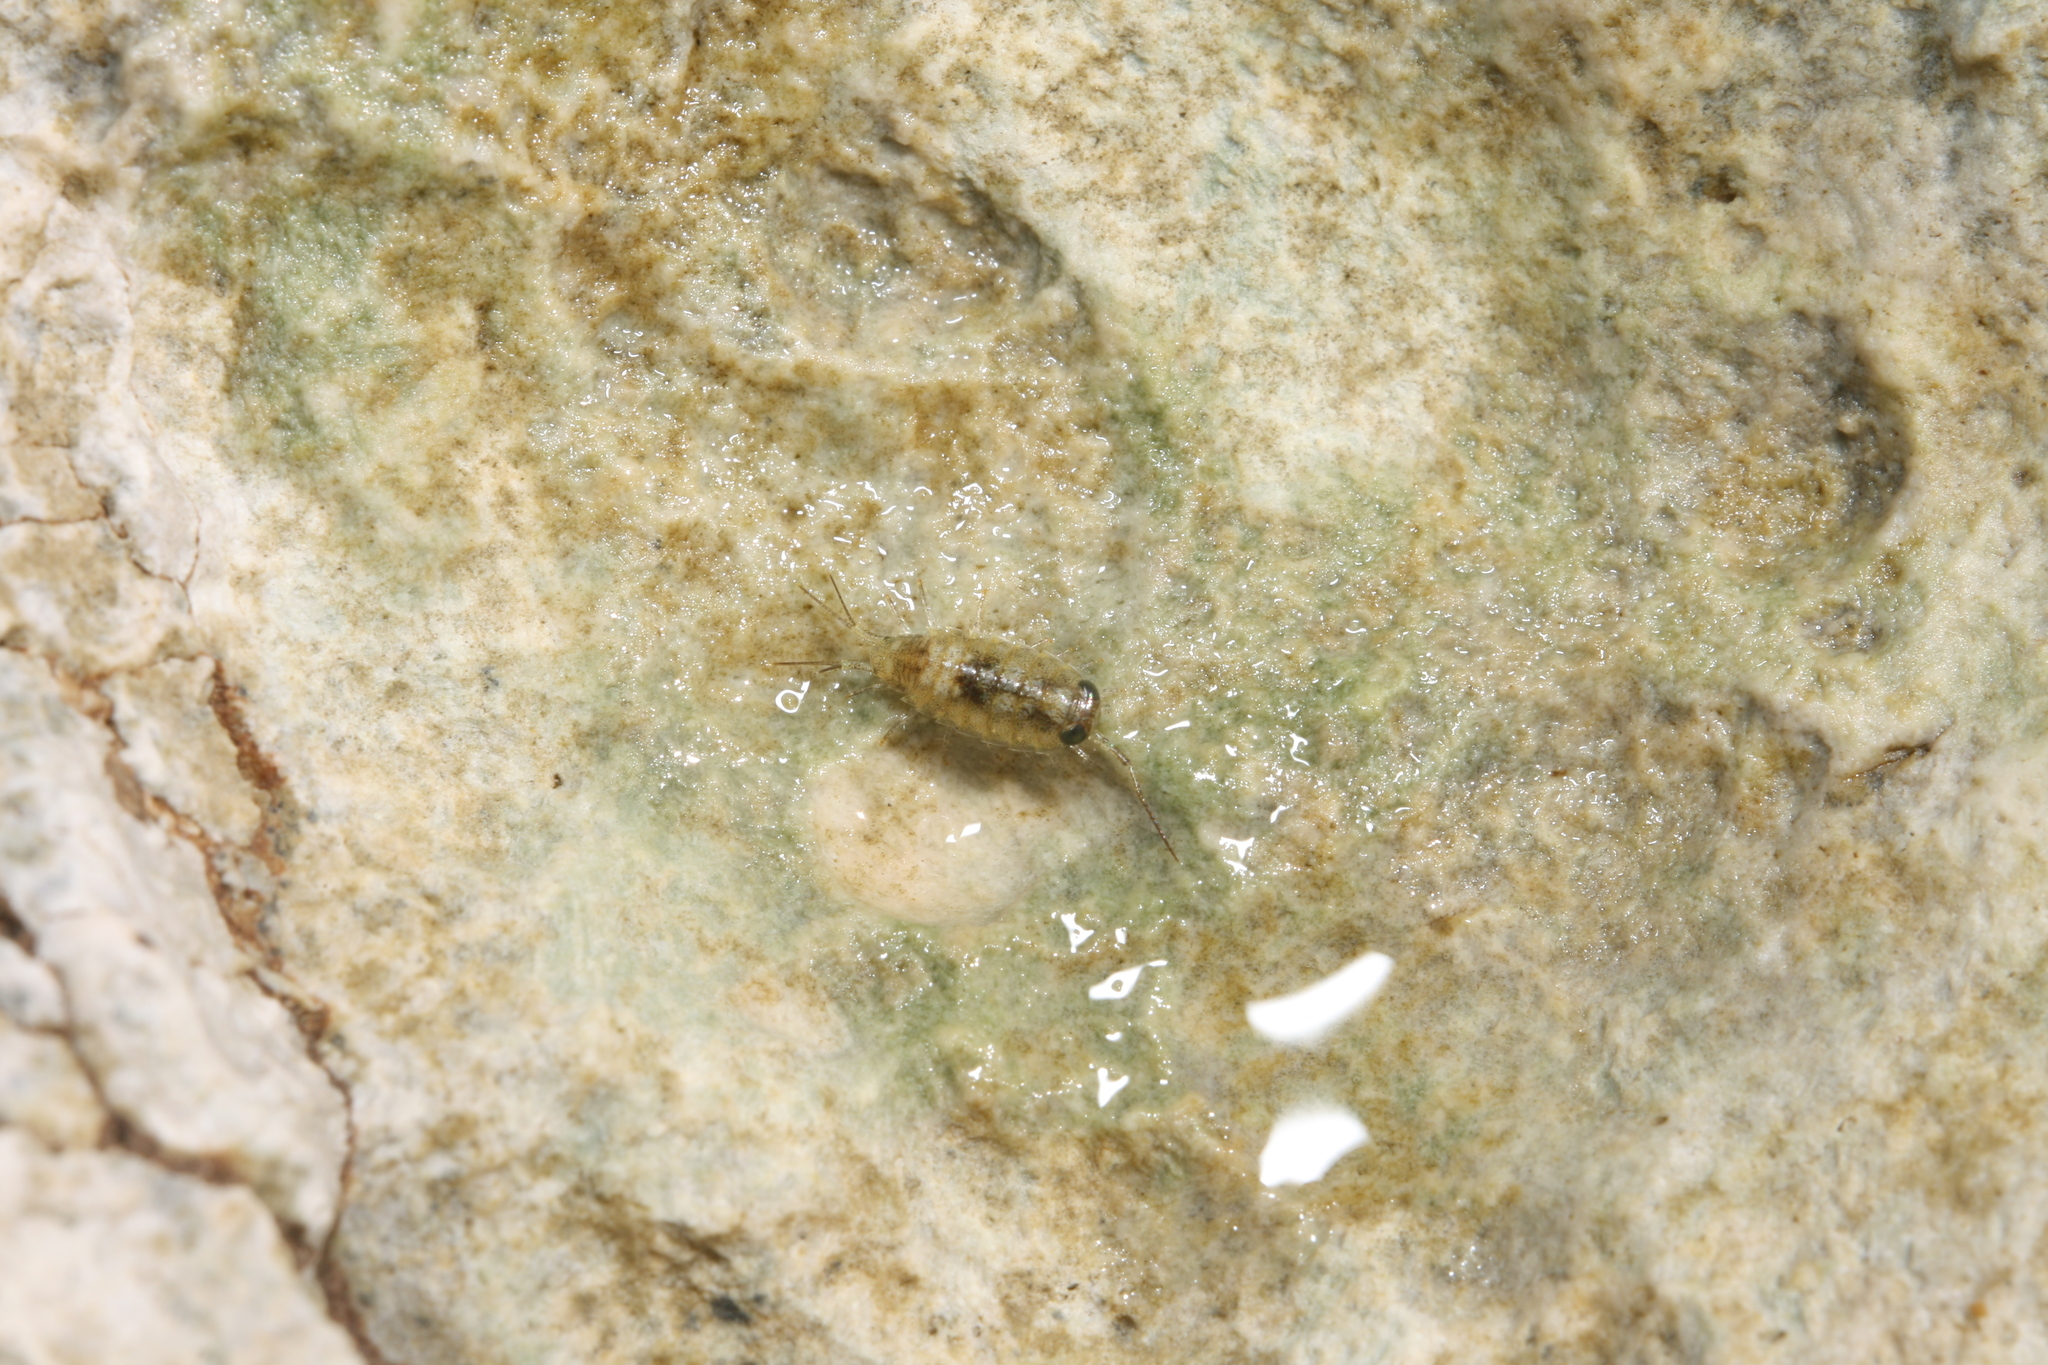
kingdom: Animalia
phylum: Arthropoda
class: Malacostraca
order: Isopoda
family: Ligiidae
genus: Ligia
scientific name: Ligia italica
